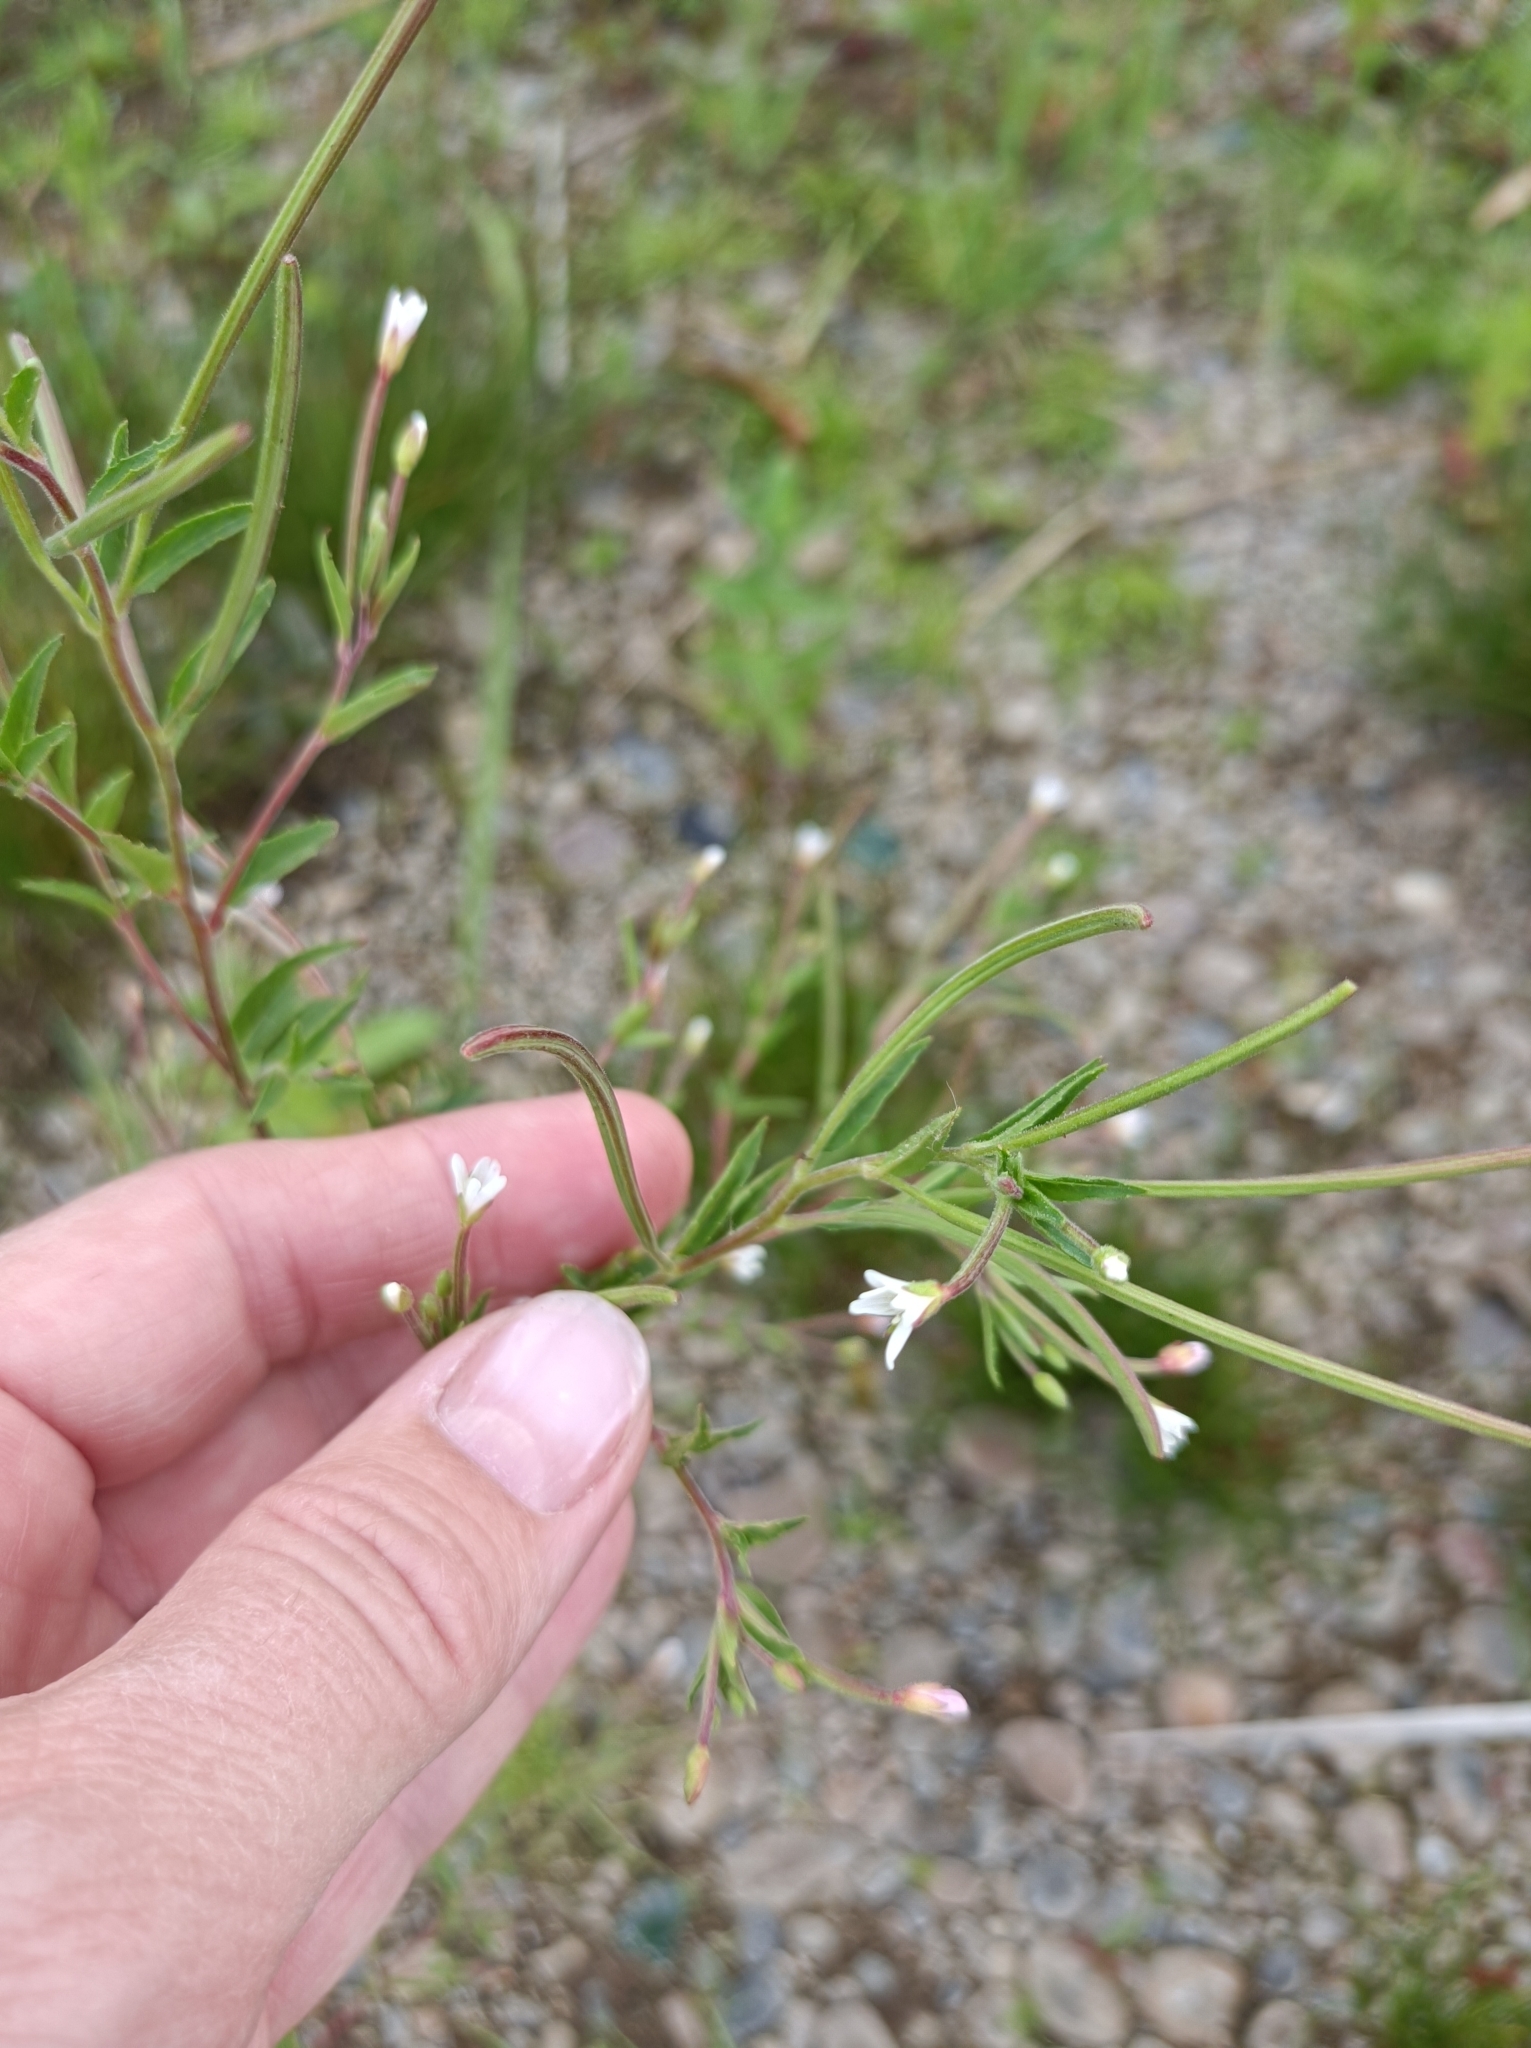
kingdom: Plantae
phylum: Tracheophyta
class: Magnoliopsida
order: Myrtales
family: Onagraceae
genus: Epilobium
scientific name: Epilobium pseudorubescens
